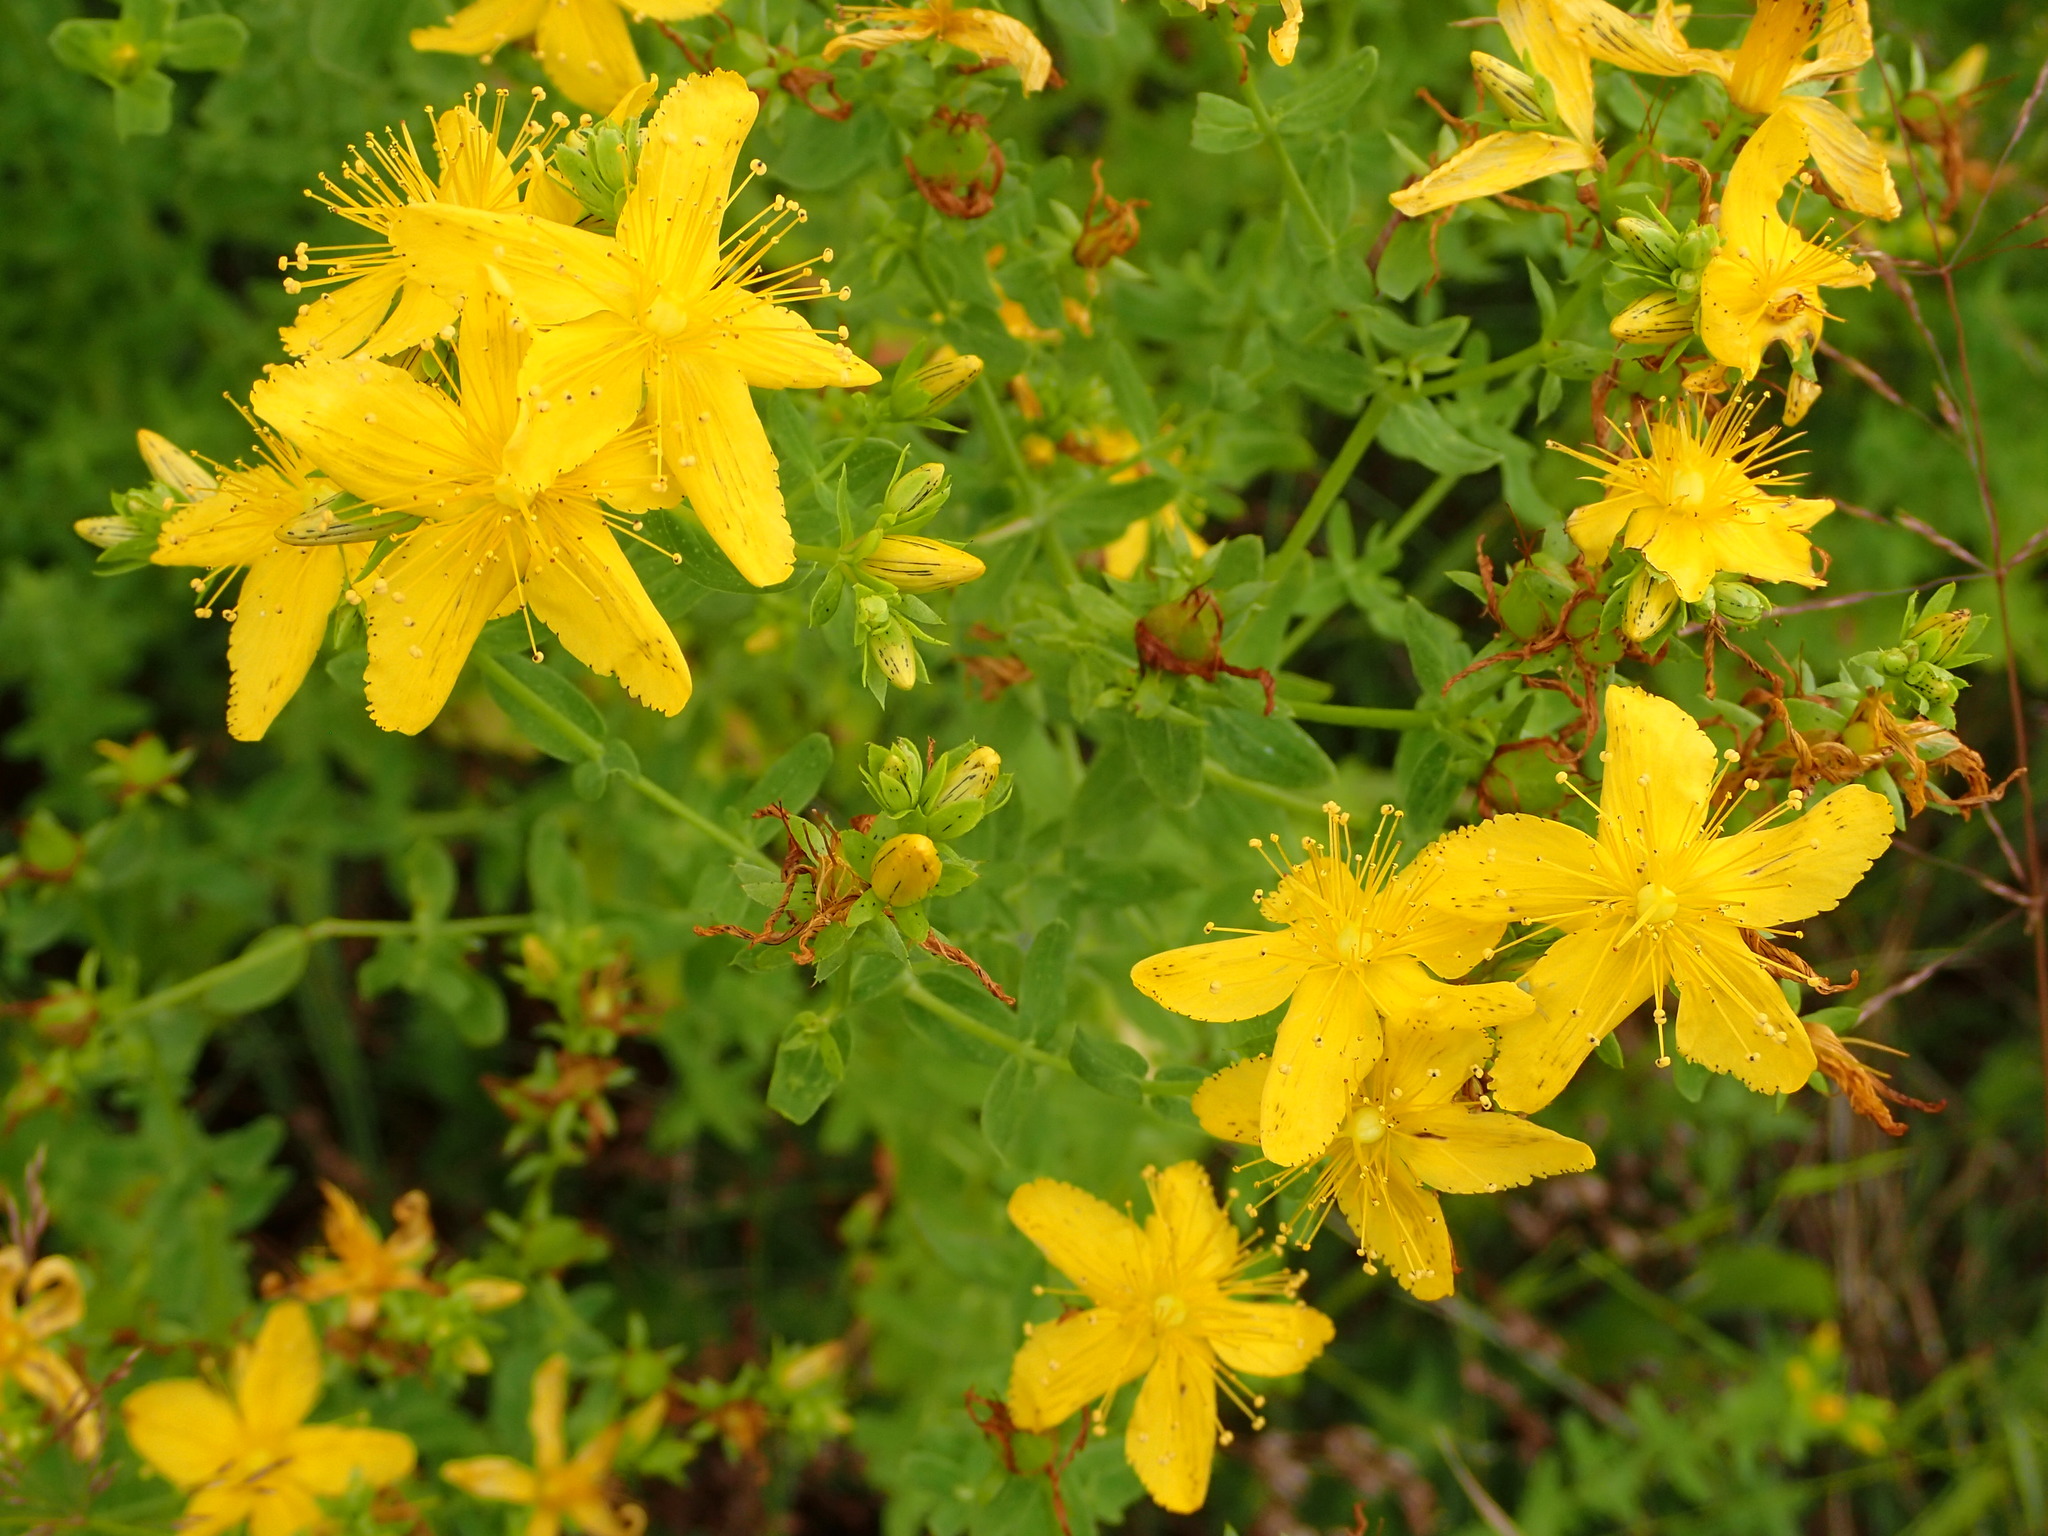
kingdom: Plantae
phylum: Tracheophyta
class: Magnoliopsida
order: Malpighiales
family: Hypericaceae
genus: Hypericum
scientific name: Hypericum perforatum
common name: Common st. johnswort
